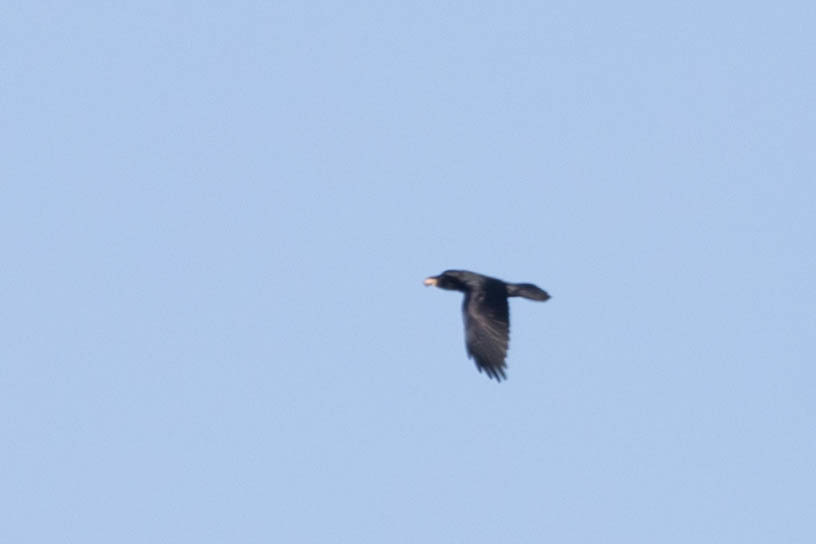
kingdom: Animalia
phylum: Chordata
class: Aves
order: Passeriformes
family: Corvidae
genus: Corvus
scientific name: Corvus corax
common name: Common raven
